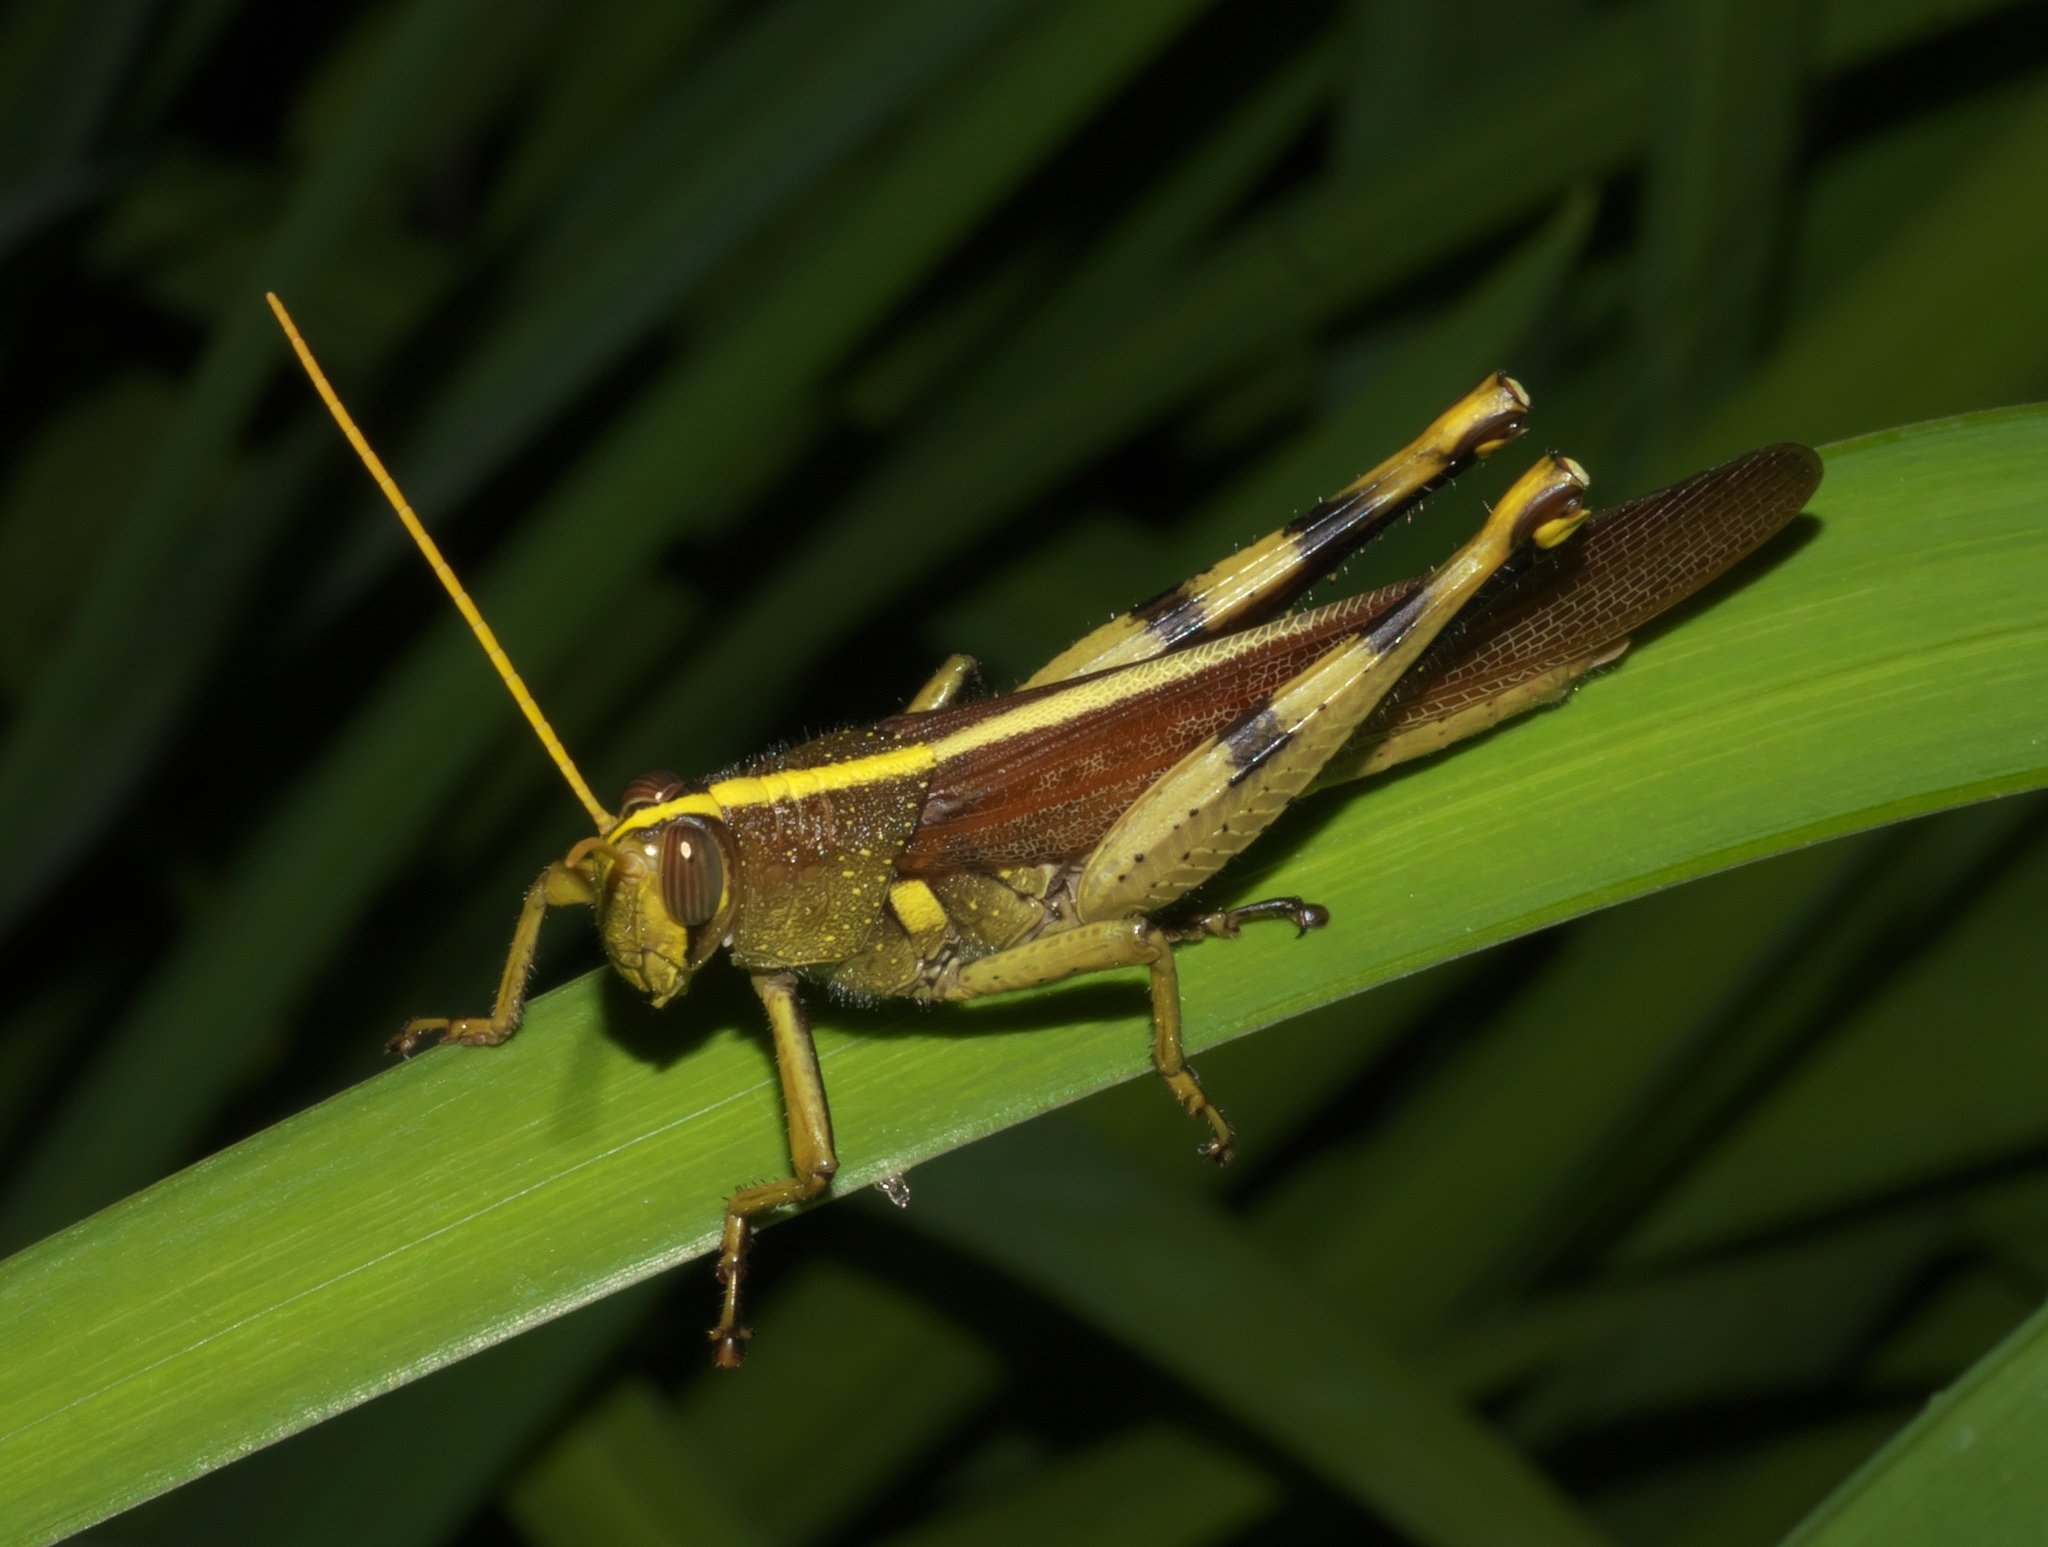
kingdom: Animalia
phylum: Arthropoda
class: Insecta
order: Orthoptera
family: Acrididae
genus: Schistocerca
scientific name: Schistocerca obscura
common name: Obscure bird grasshopper
